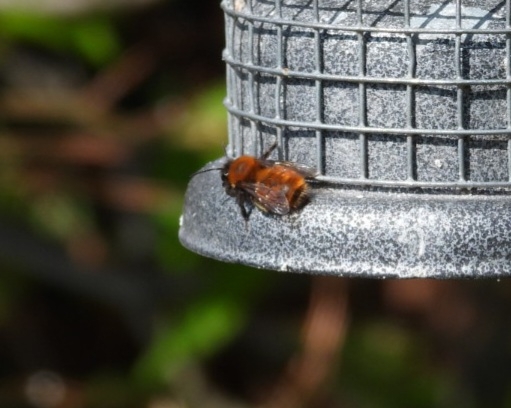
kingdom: Animalia
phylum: Arthropoda
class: Insecta
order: Hymenoptera
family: Andrenidae
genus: Andrena
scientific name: Andrena fulva
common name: Tawny mining bee
